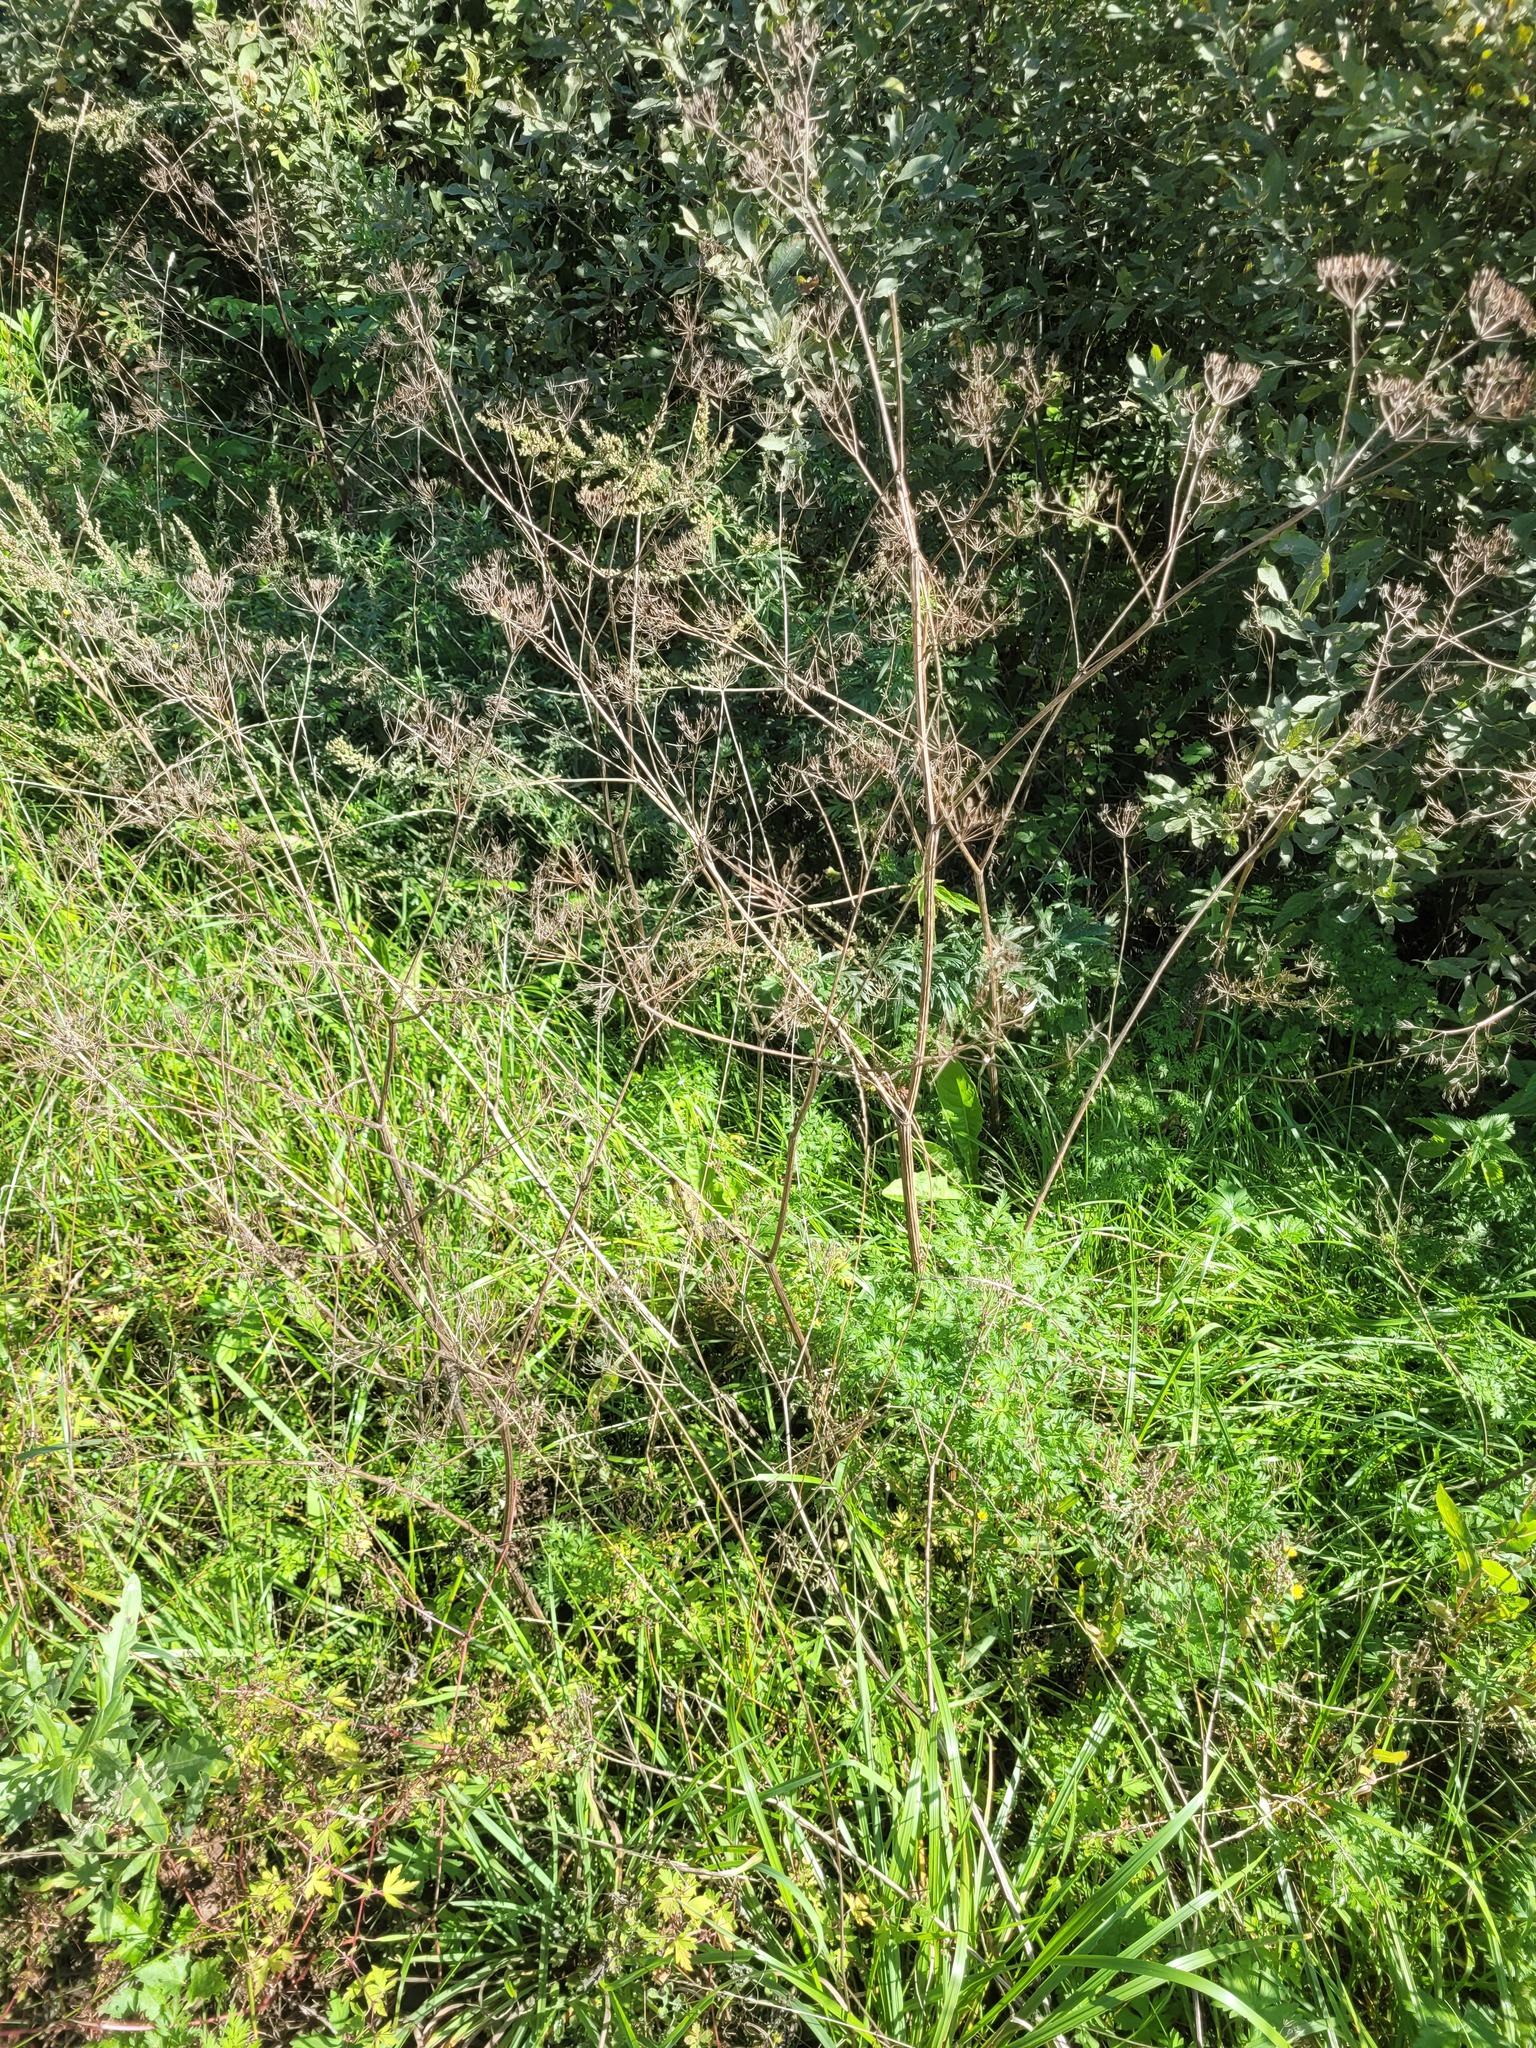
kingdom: Plantae
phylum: Tracheophyta
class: Magnoliopsida
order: Apiales
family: Apiaceae
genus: Anthriscus
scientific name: Anthriscus sylvestris
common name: Cow parsley
